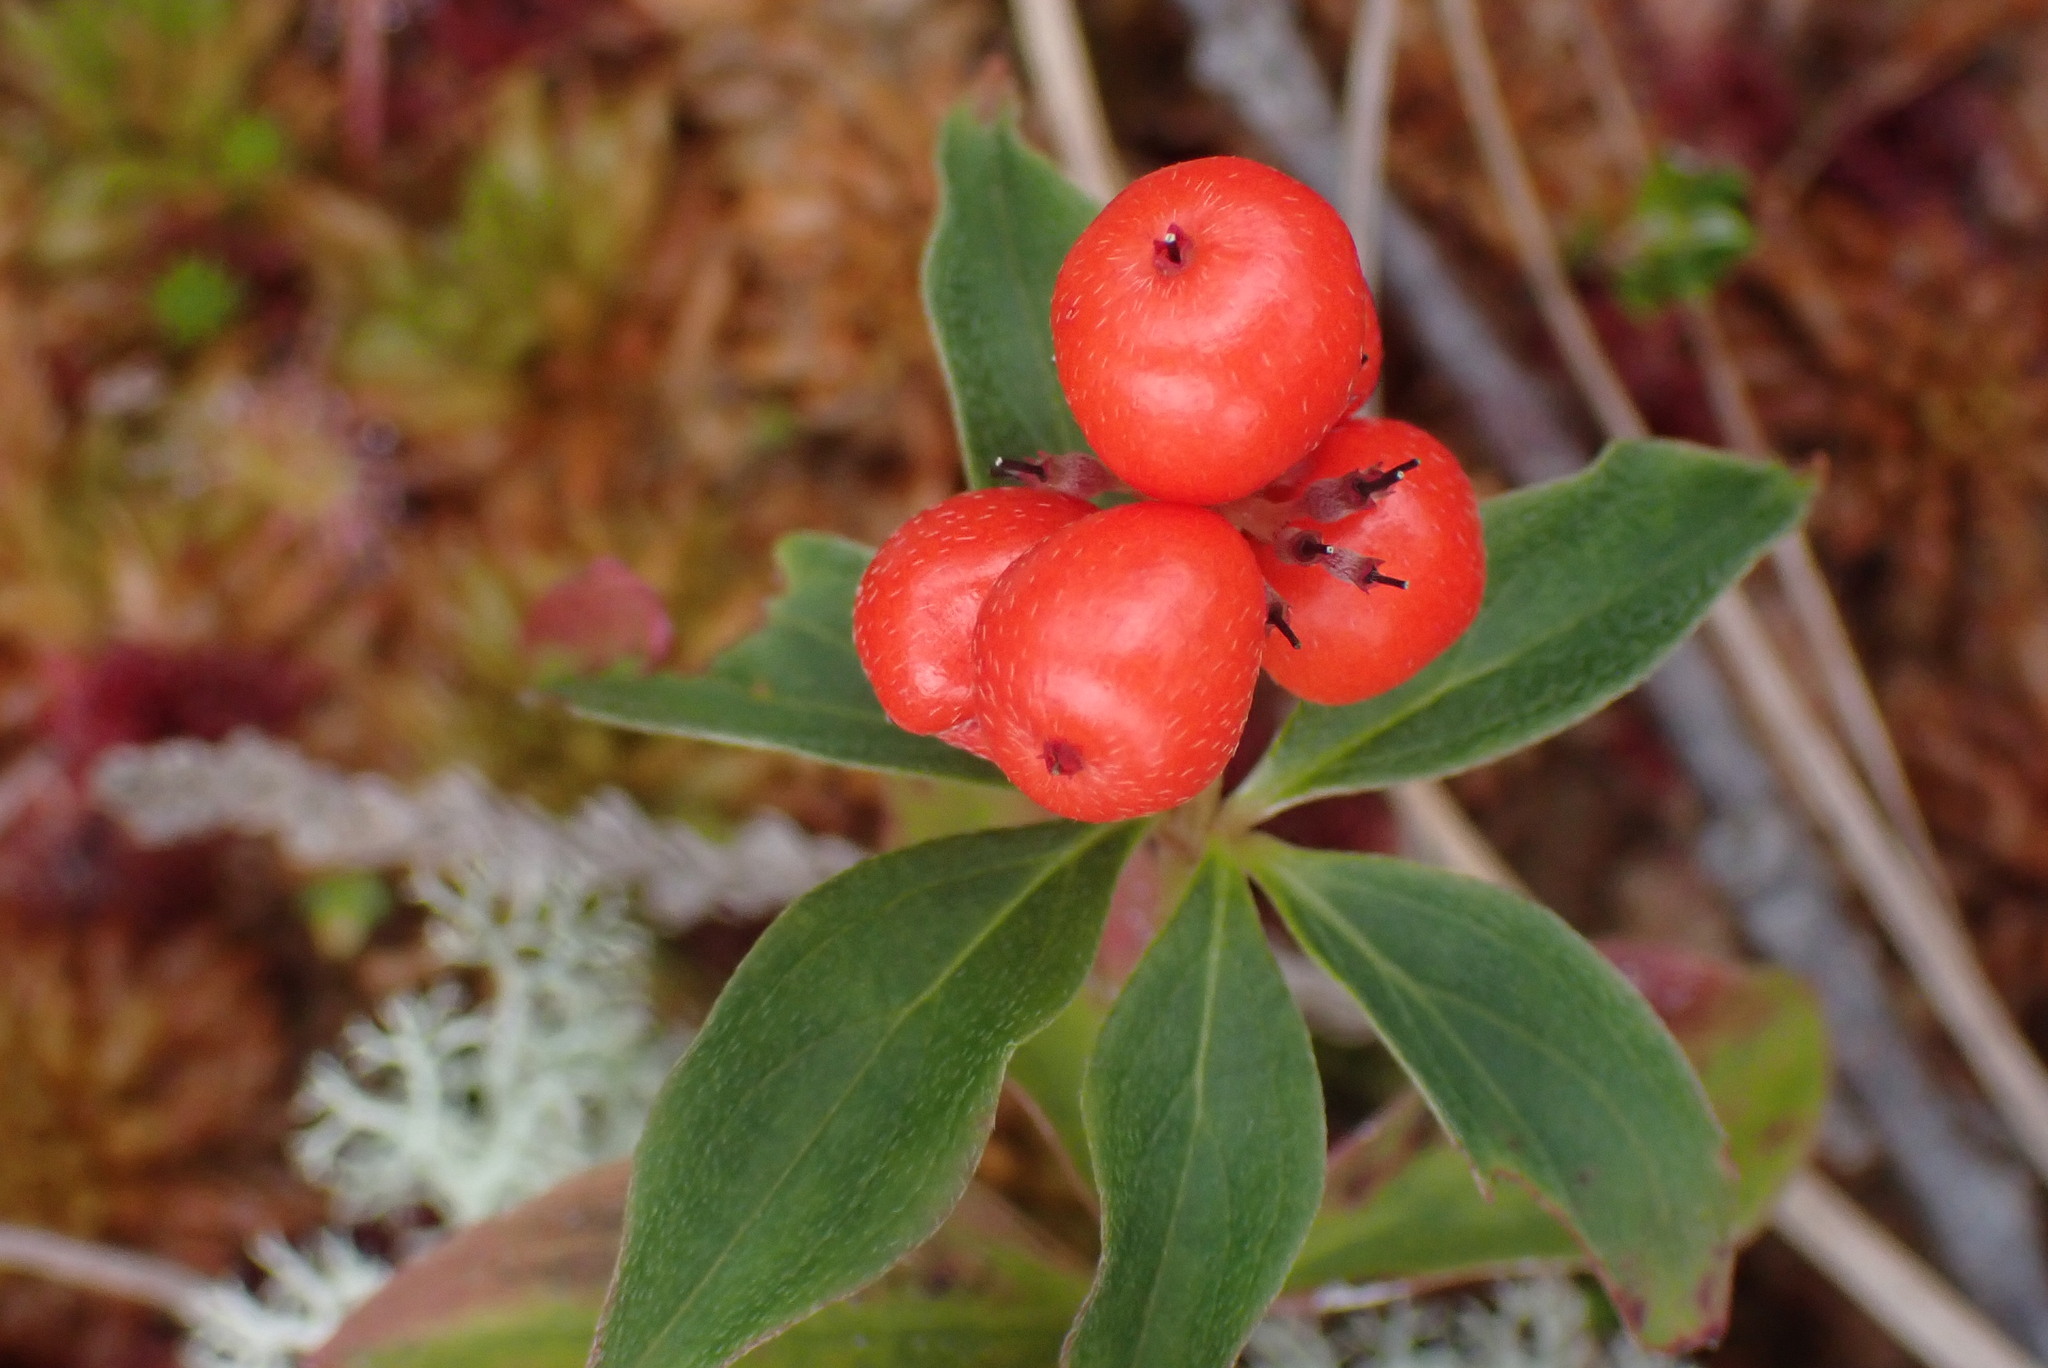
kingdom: Plantae
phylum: Tracheophyta
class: Magnoliopsida
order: Cornales
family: Cornaceae
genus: Cornus
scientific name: Cornus unalaschkensis
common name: Alaska bunchberry
